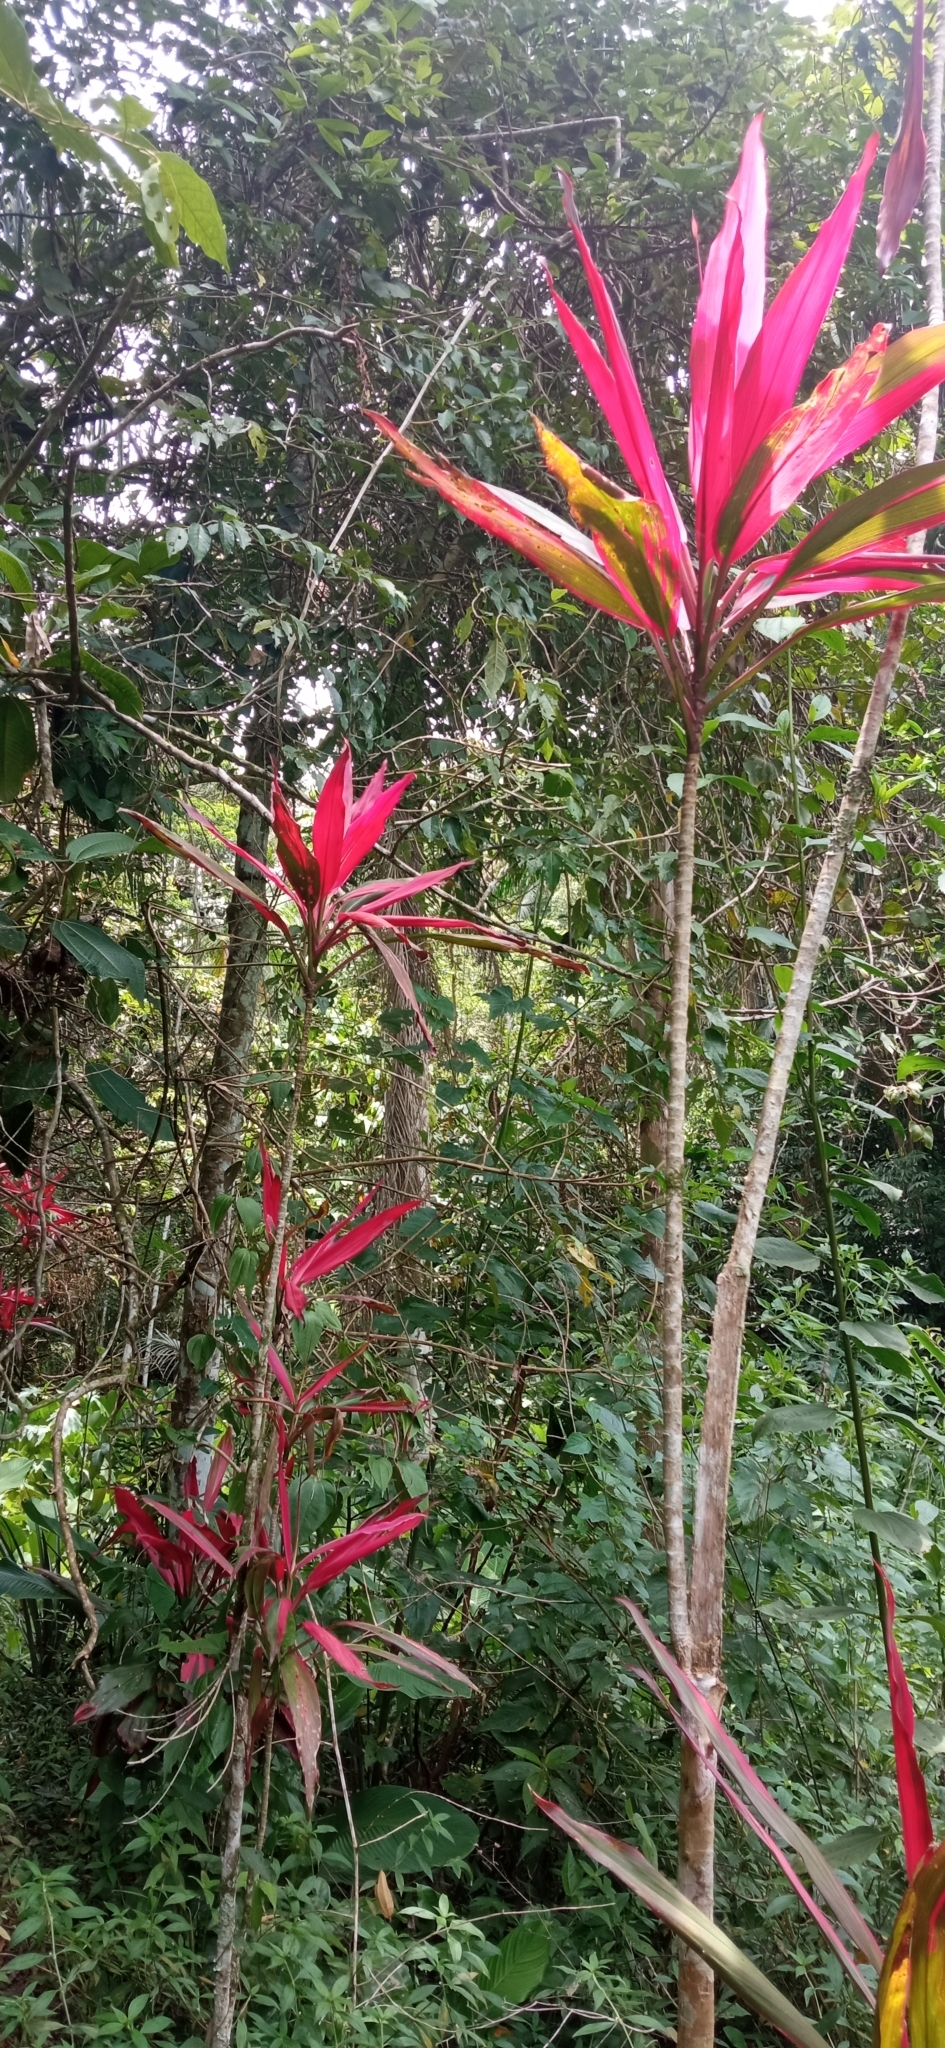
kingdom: Plantae
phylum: Tracheophyta
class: Liliopsida
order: Asparagales
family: Asparagaceae
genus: Cordyline
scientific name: Cordyline fruticosa
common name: Good-luck-plant
